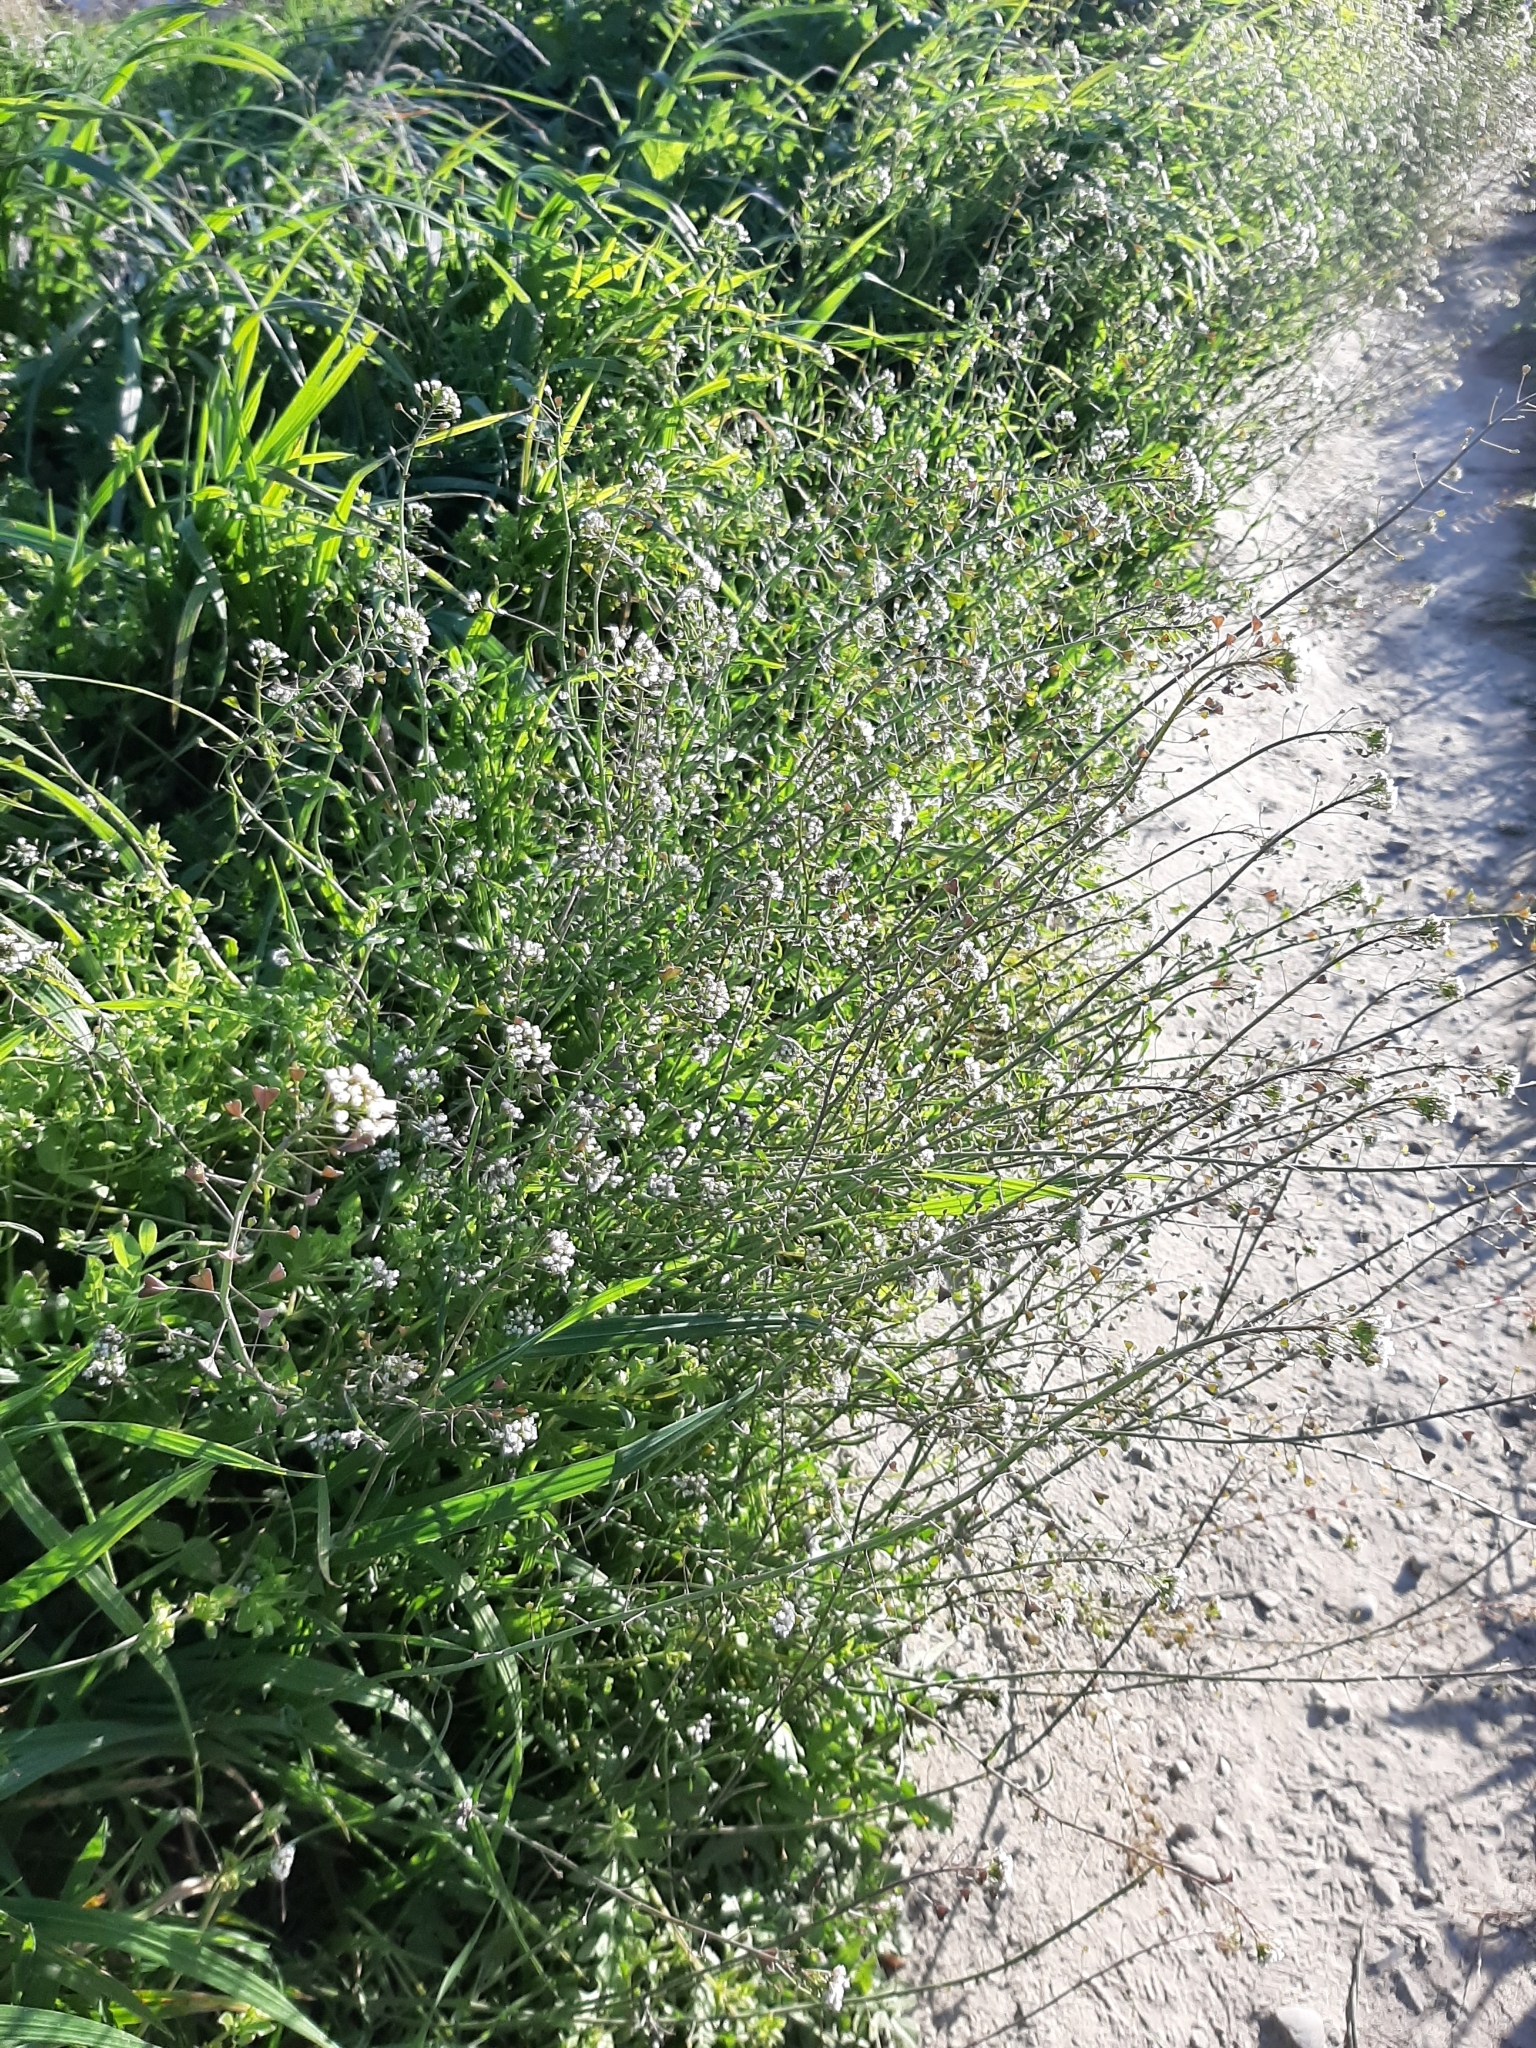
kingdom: Plantae
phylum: Tracheophyta
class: Magnoliopsida
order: Brassicales
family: Brassicaceae
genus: Capsella
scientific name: Capsella bursa-pastoris
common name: Shepherd's purse
